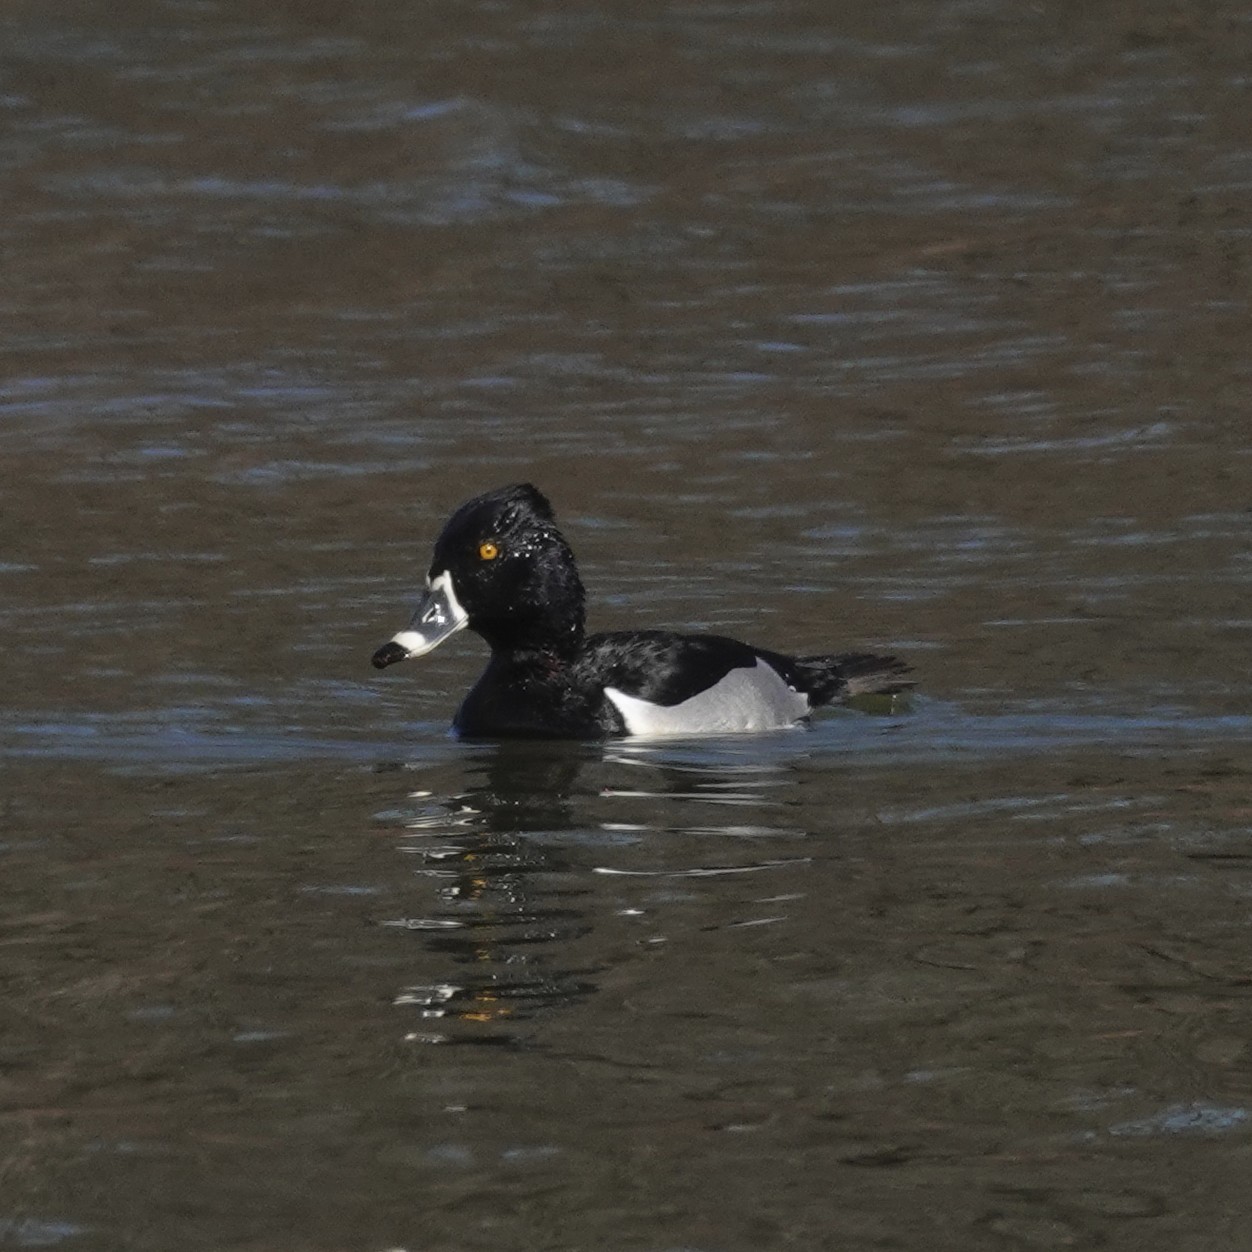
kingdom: Animalia
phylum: Chordata
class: Aves
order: Anseriformes
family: Anatidae
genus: Aythya
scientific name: Aythya collaris
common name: Ring-necked duck
